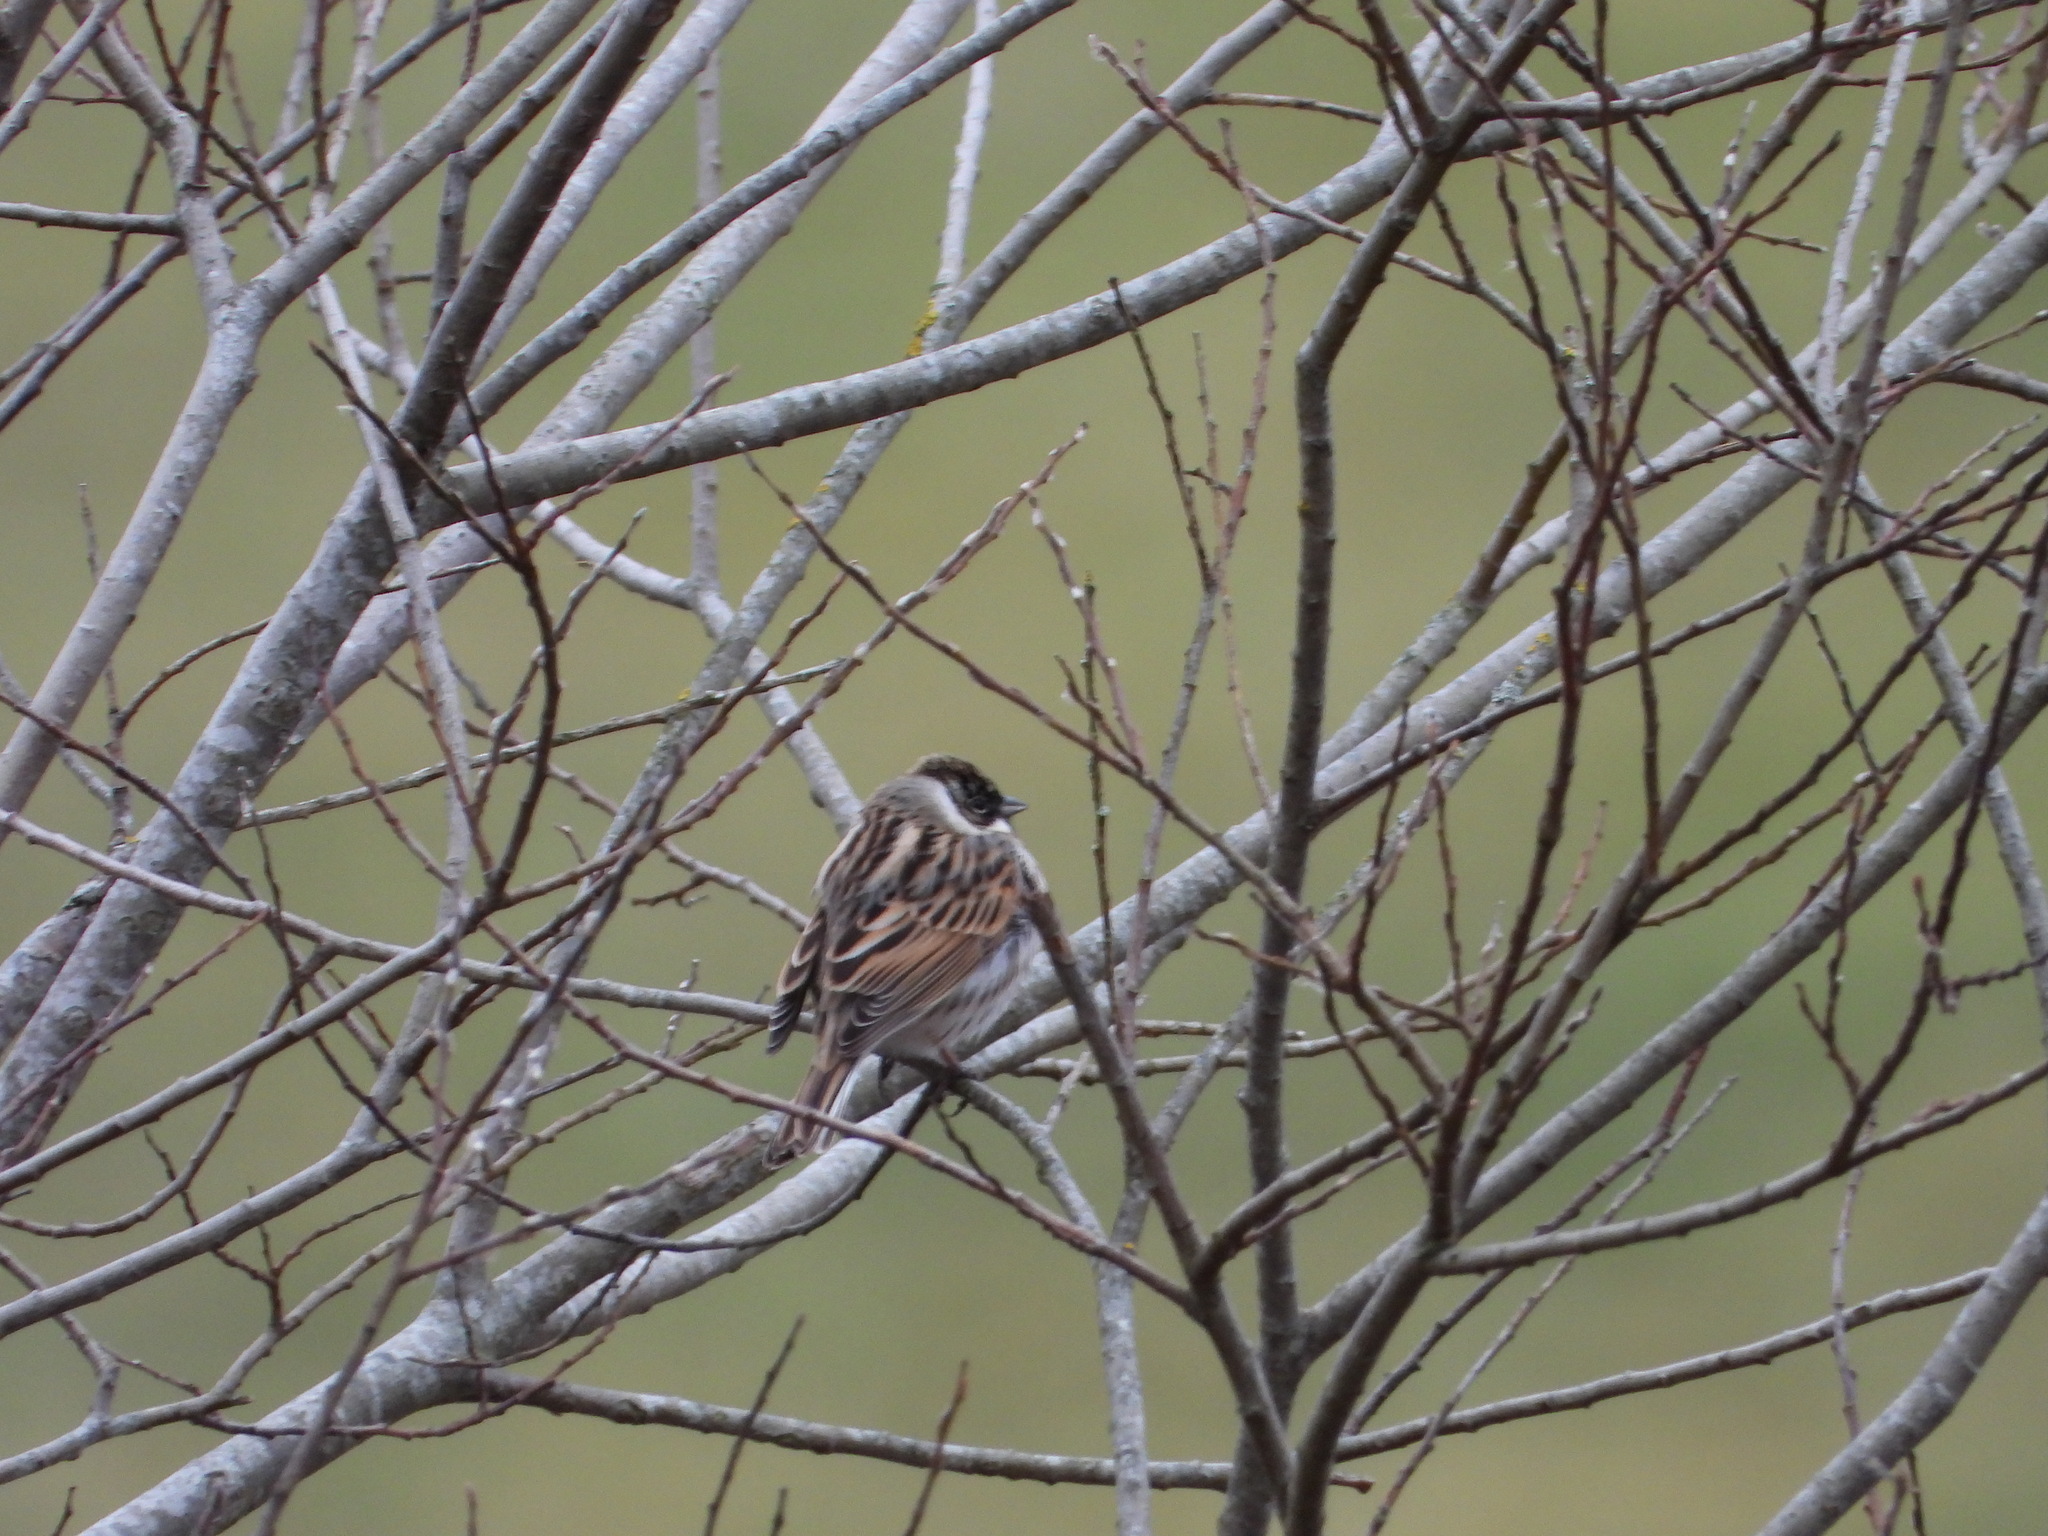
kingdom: Animalia
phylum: Chordata
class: Aves
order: Passeriformes
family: Emberizidae
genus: Emberiza
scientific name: Emberiza schoeniclus
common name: Reed bunting
